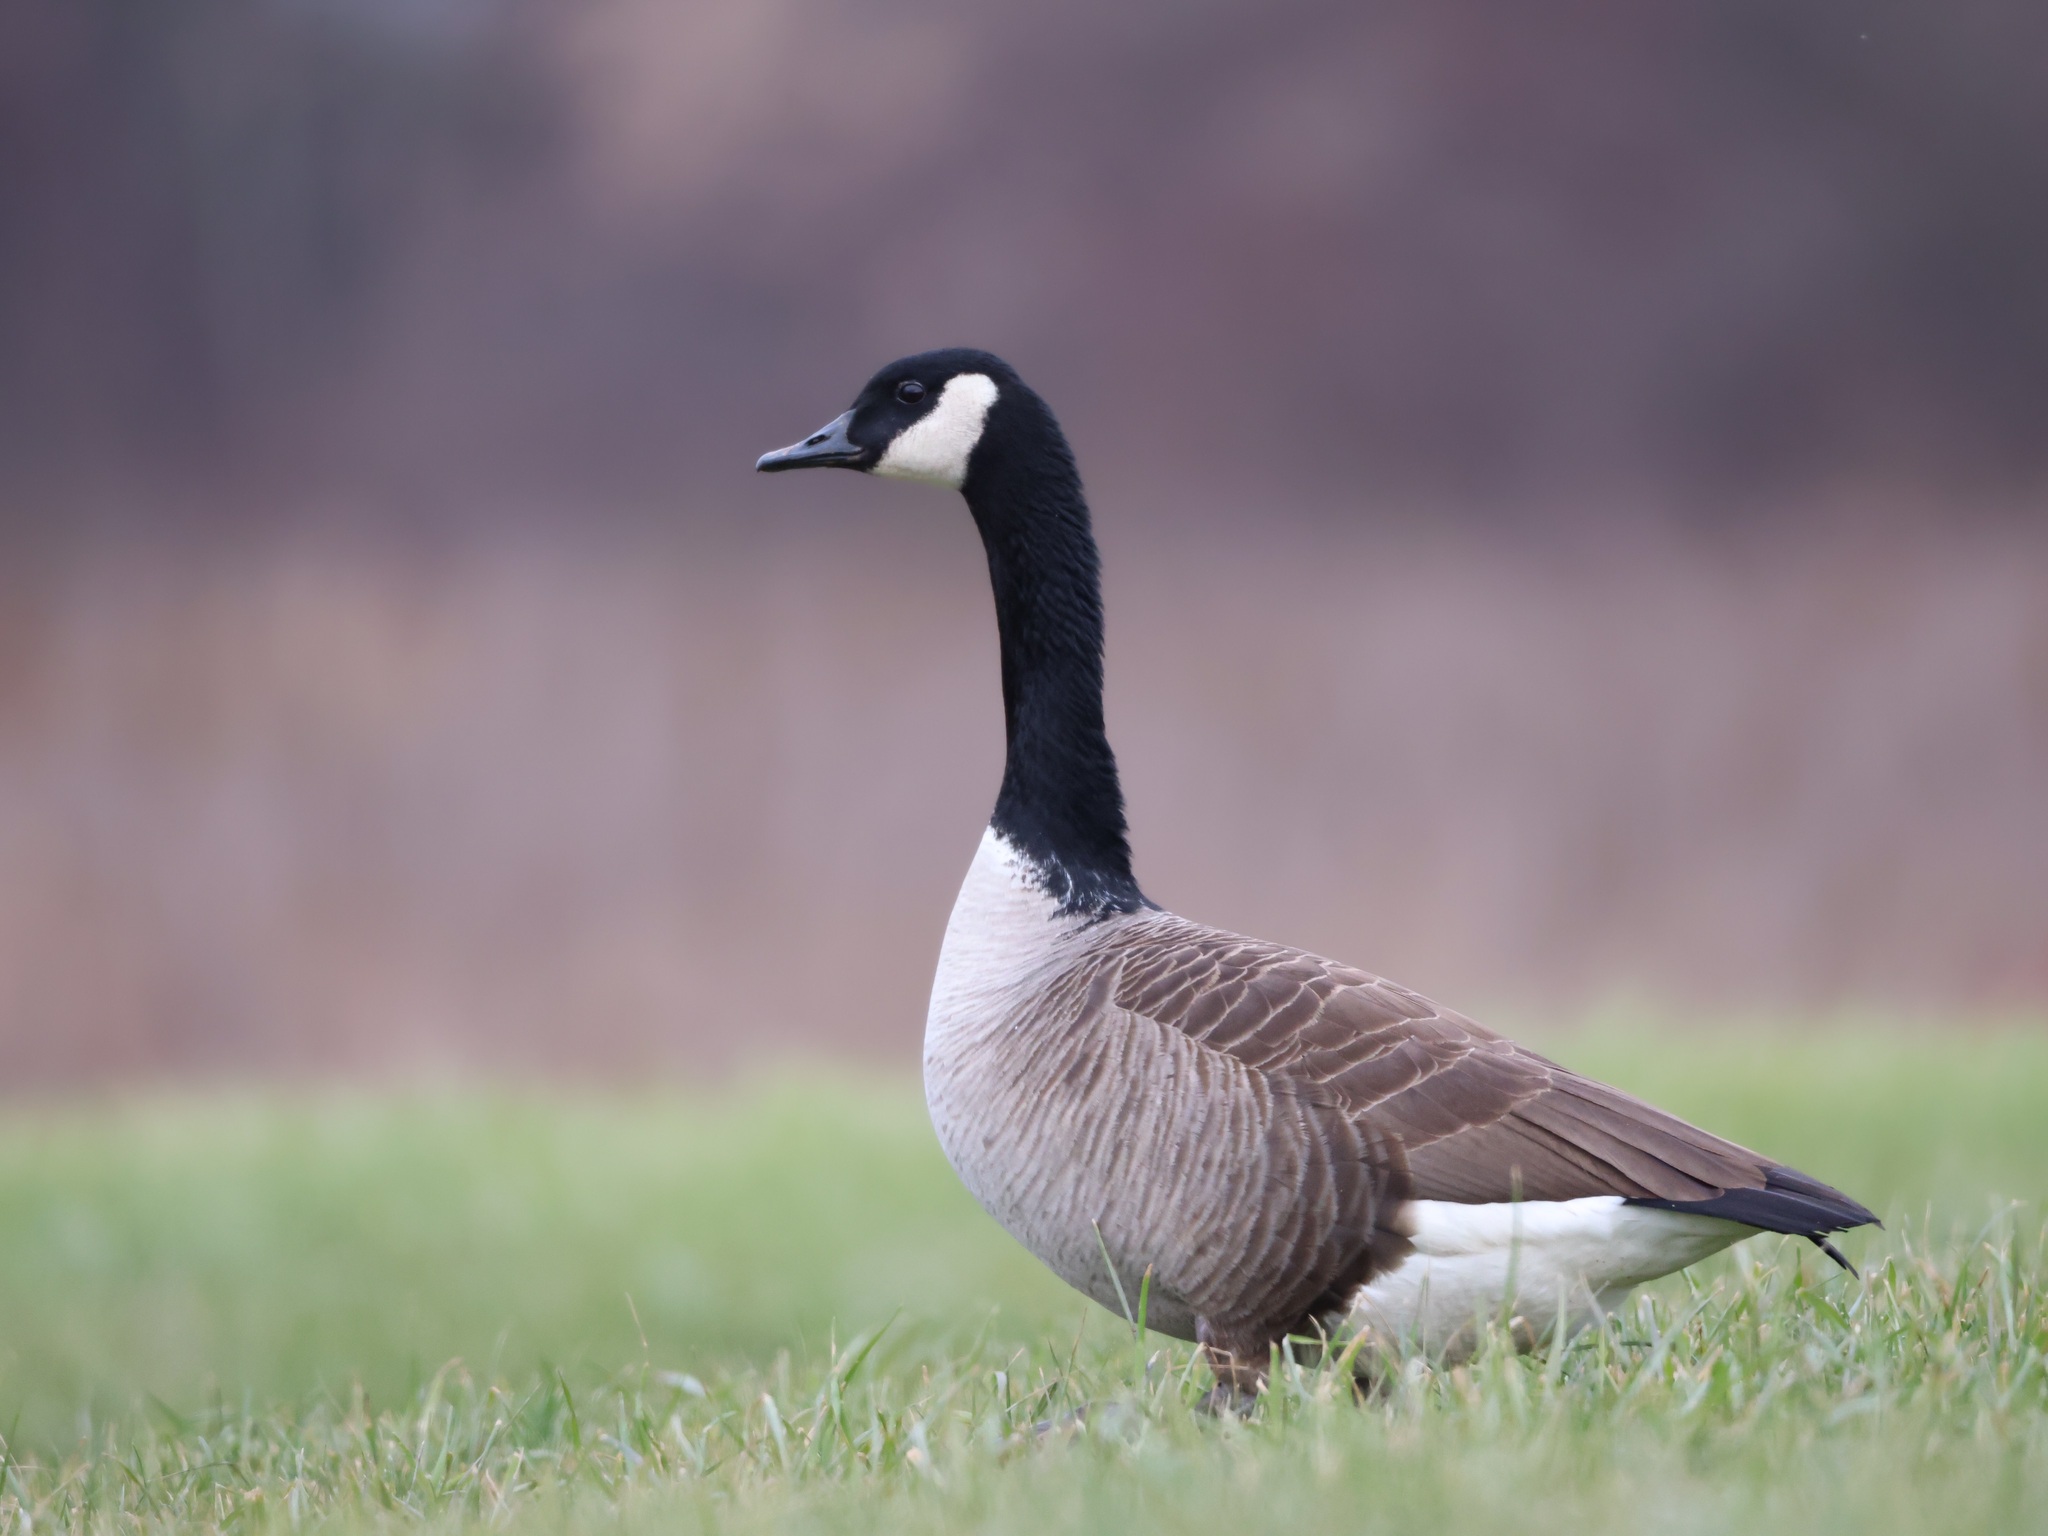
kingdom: Animalia
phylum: Chordata
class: Aves
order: Anseriformes
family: Anatidae
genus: Branta
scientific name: Branta canadensis
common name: Canada goose
